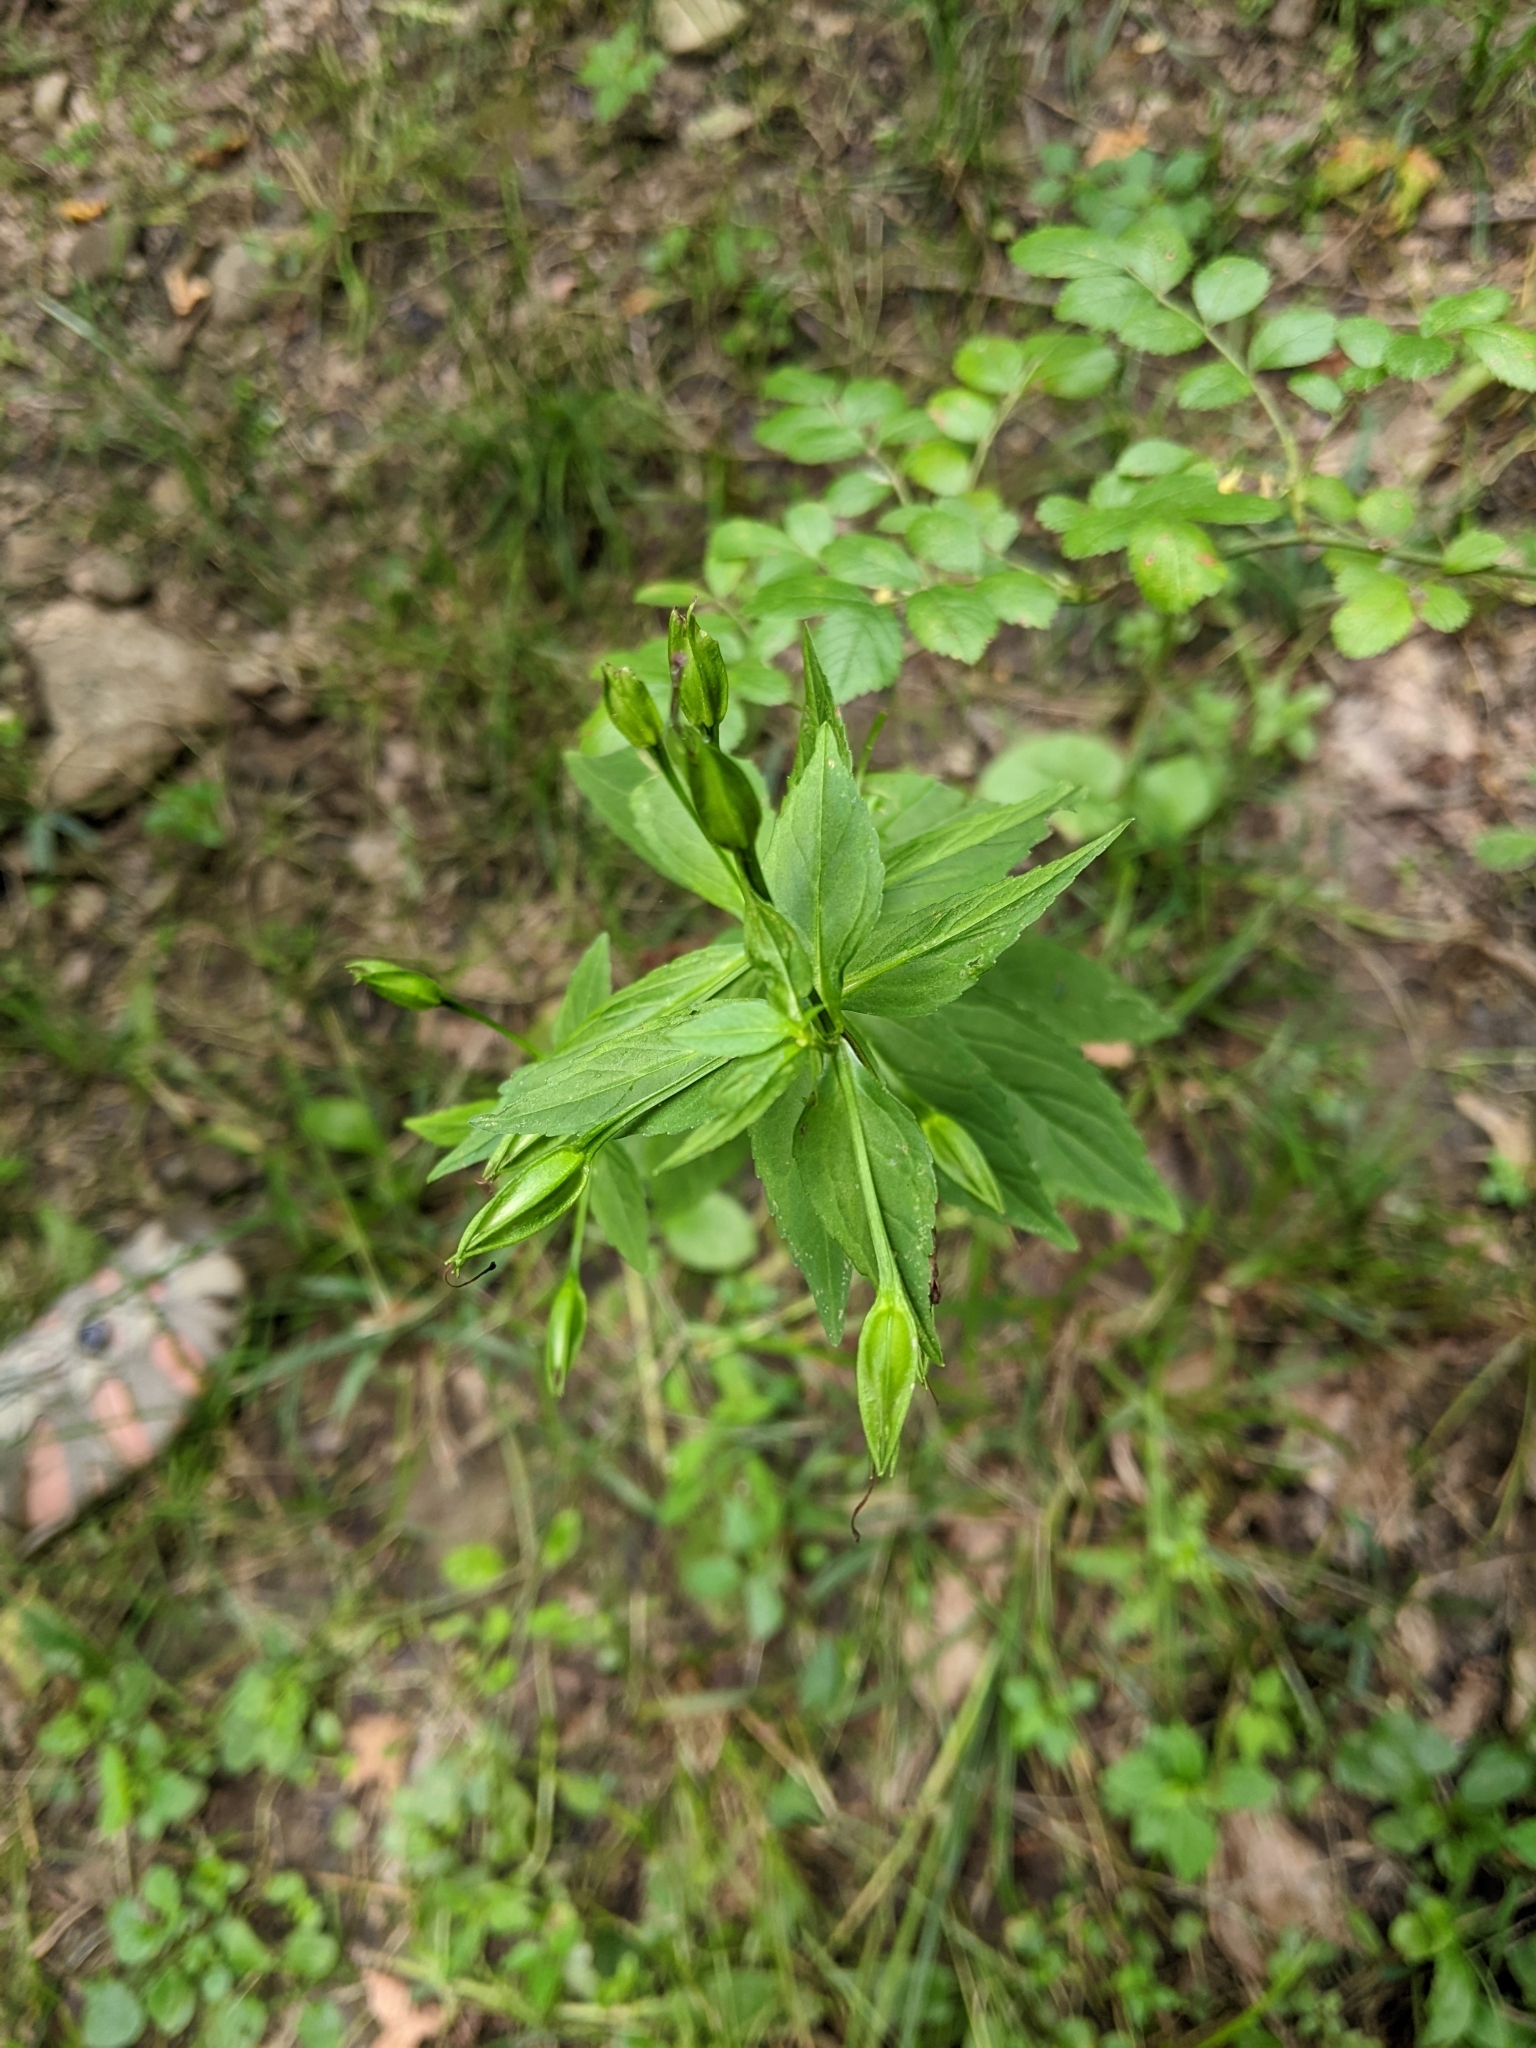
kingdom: Plantae
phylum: Tracheophyta
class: Magnoliopsida
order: Lamiales
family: Phrymaceae
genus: Mimulus
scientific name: Mimulus ringens
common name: Allegheny monkeyflower
